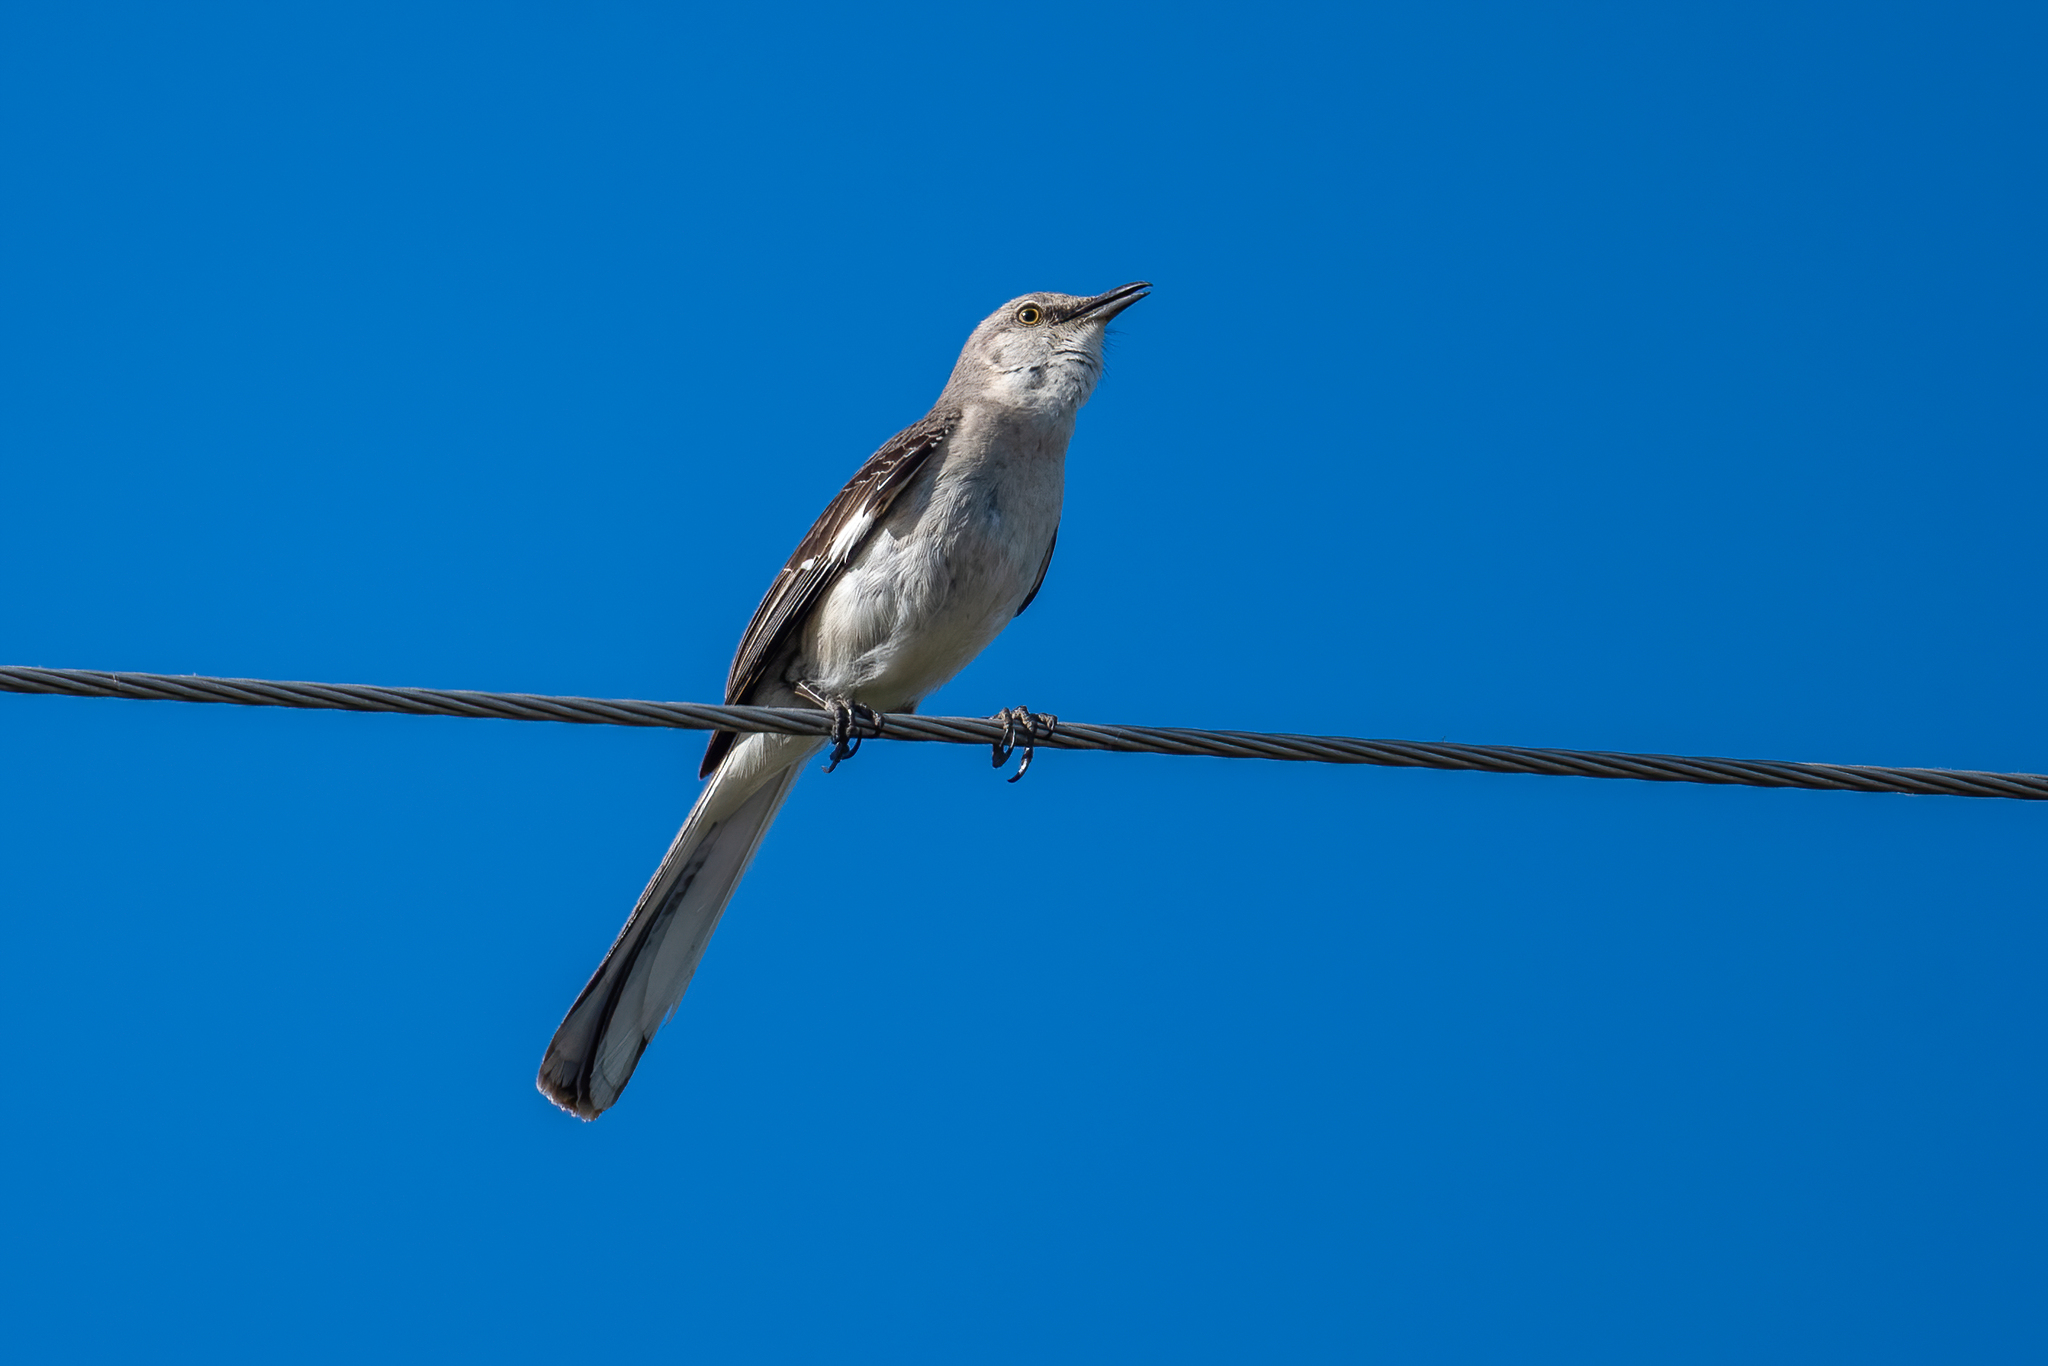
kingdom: Animalia
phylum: Chordata
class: Aves
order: Passeriformes
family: Mimidae
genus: Mimus
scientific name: Mimus polyglottos
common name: Northern mockingbird
